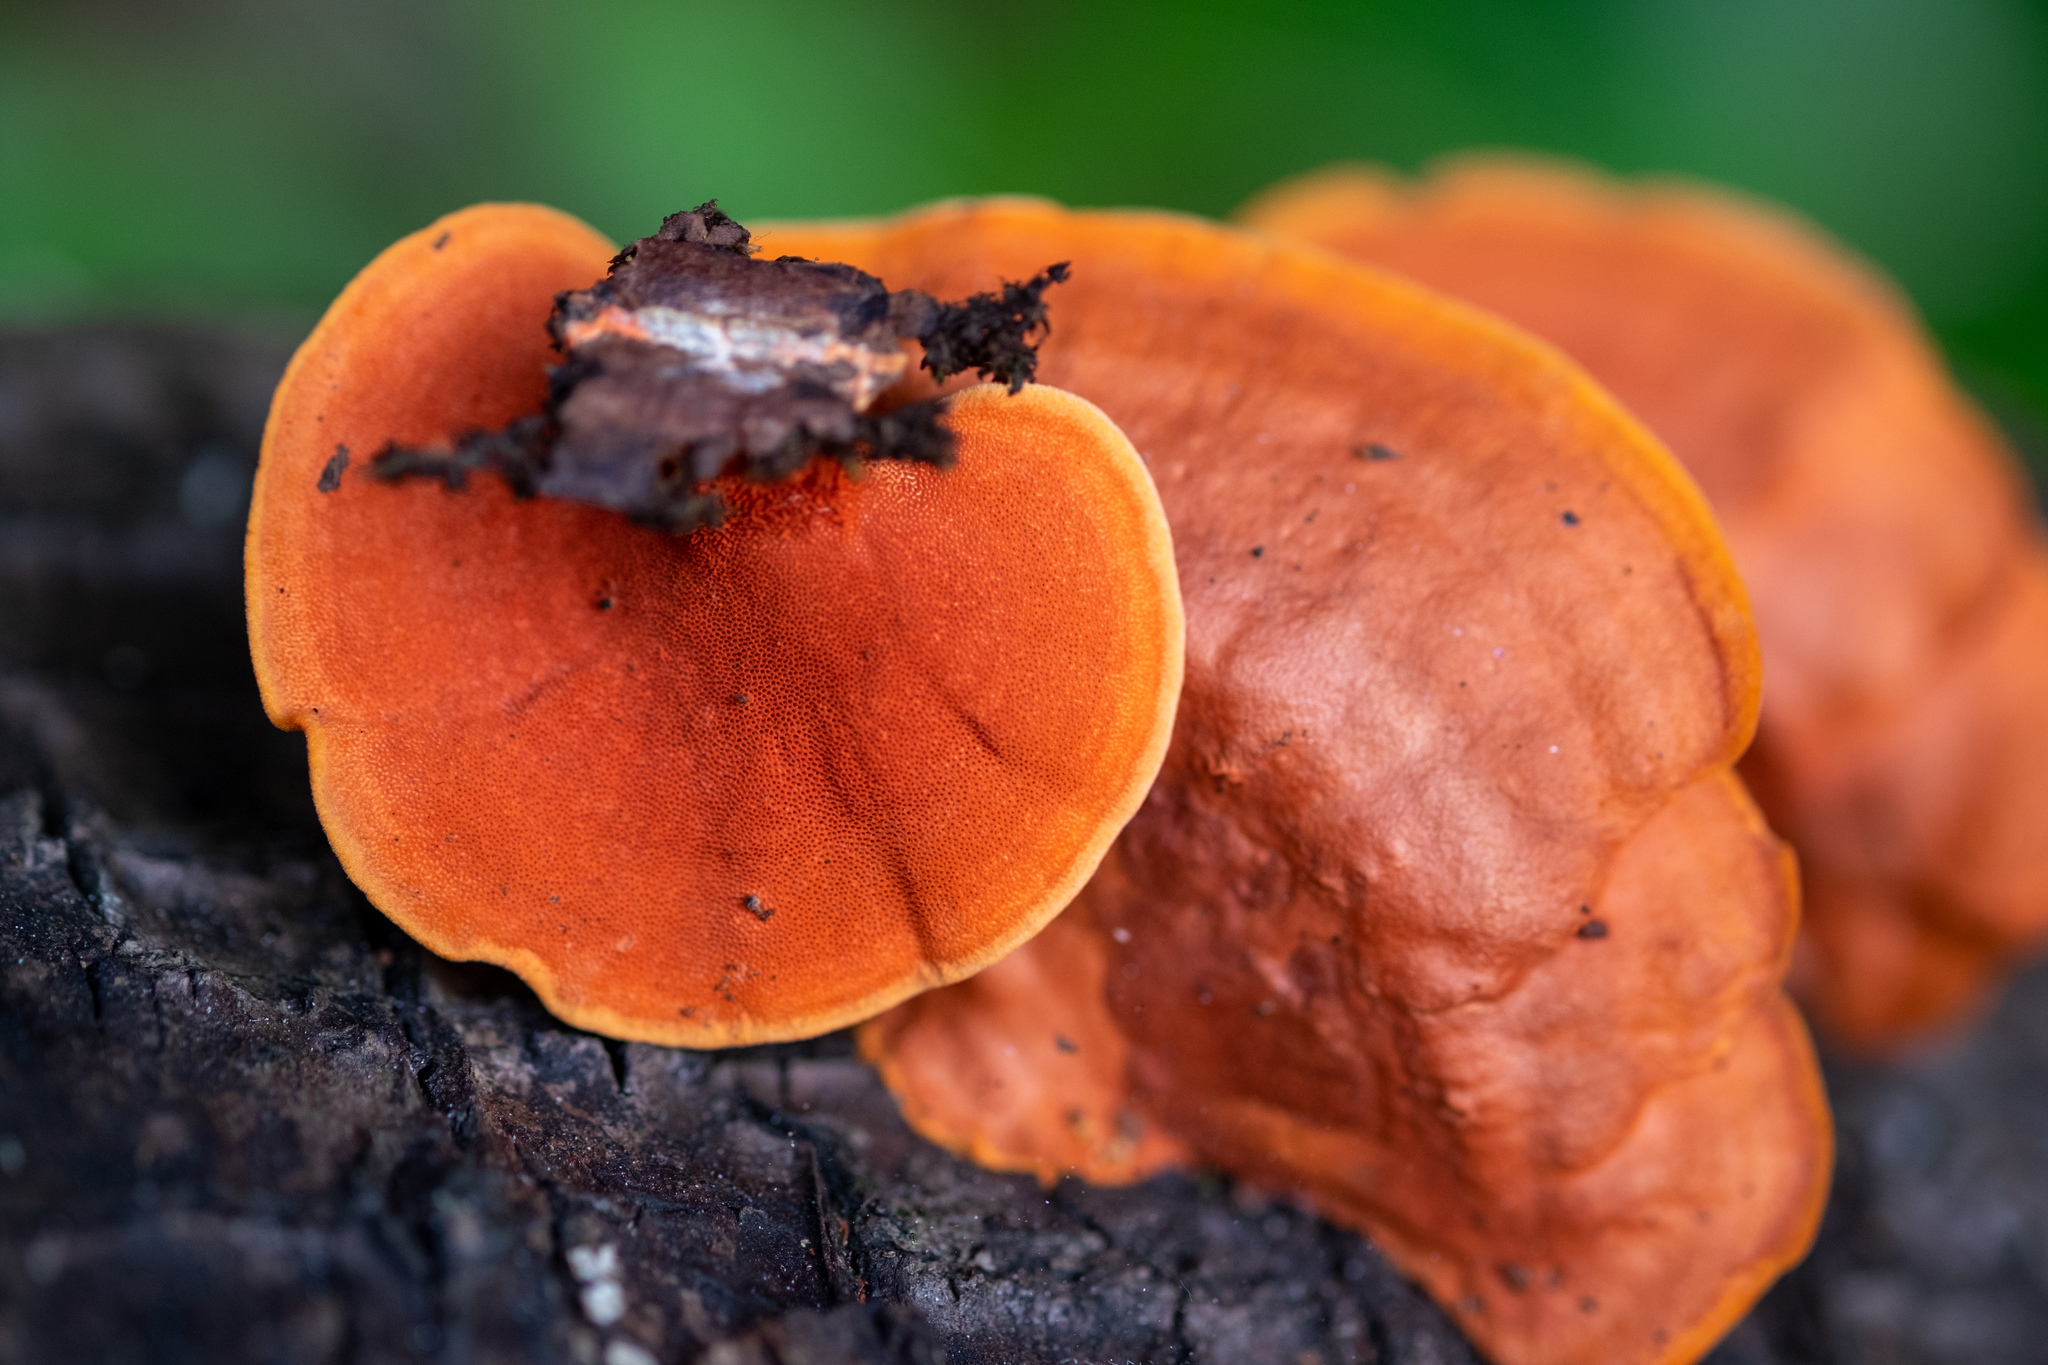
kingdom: Fungi
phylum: Basidiomycota
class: Agaricomycetes
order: Polyporales
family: Polyporaceae
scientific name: Polyporaceae
